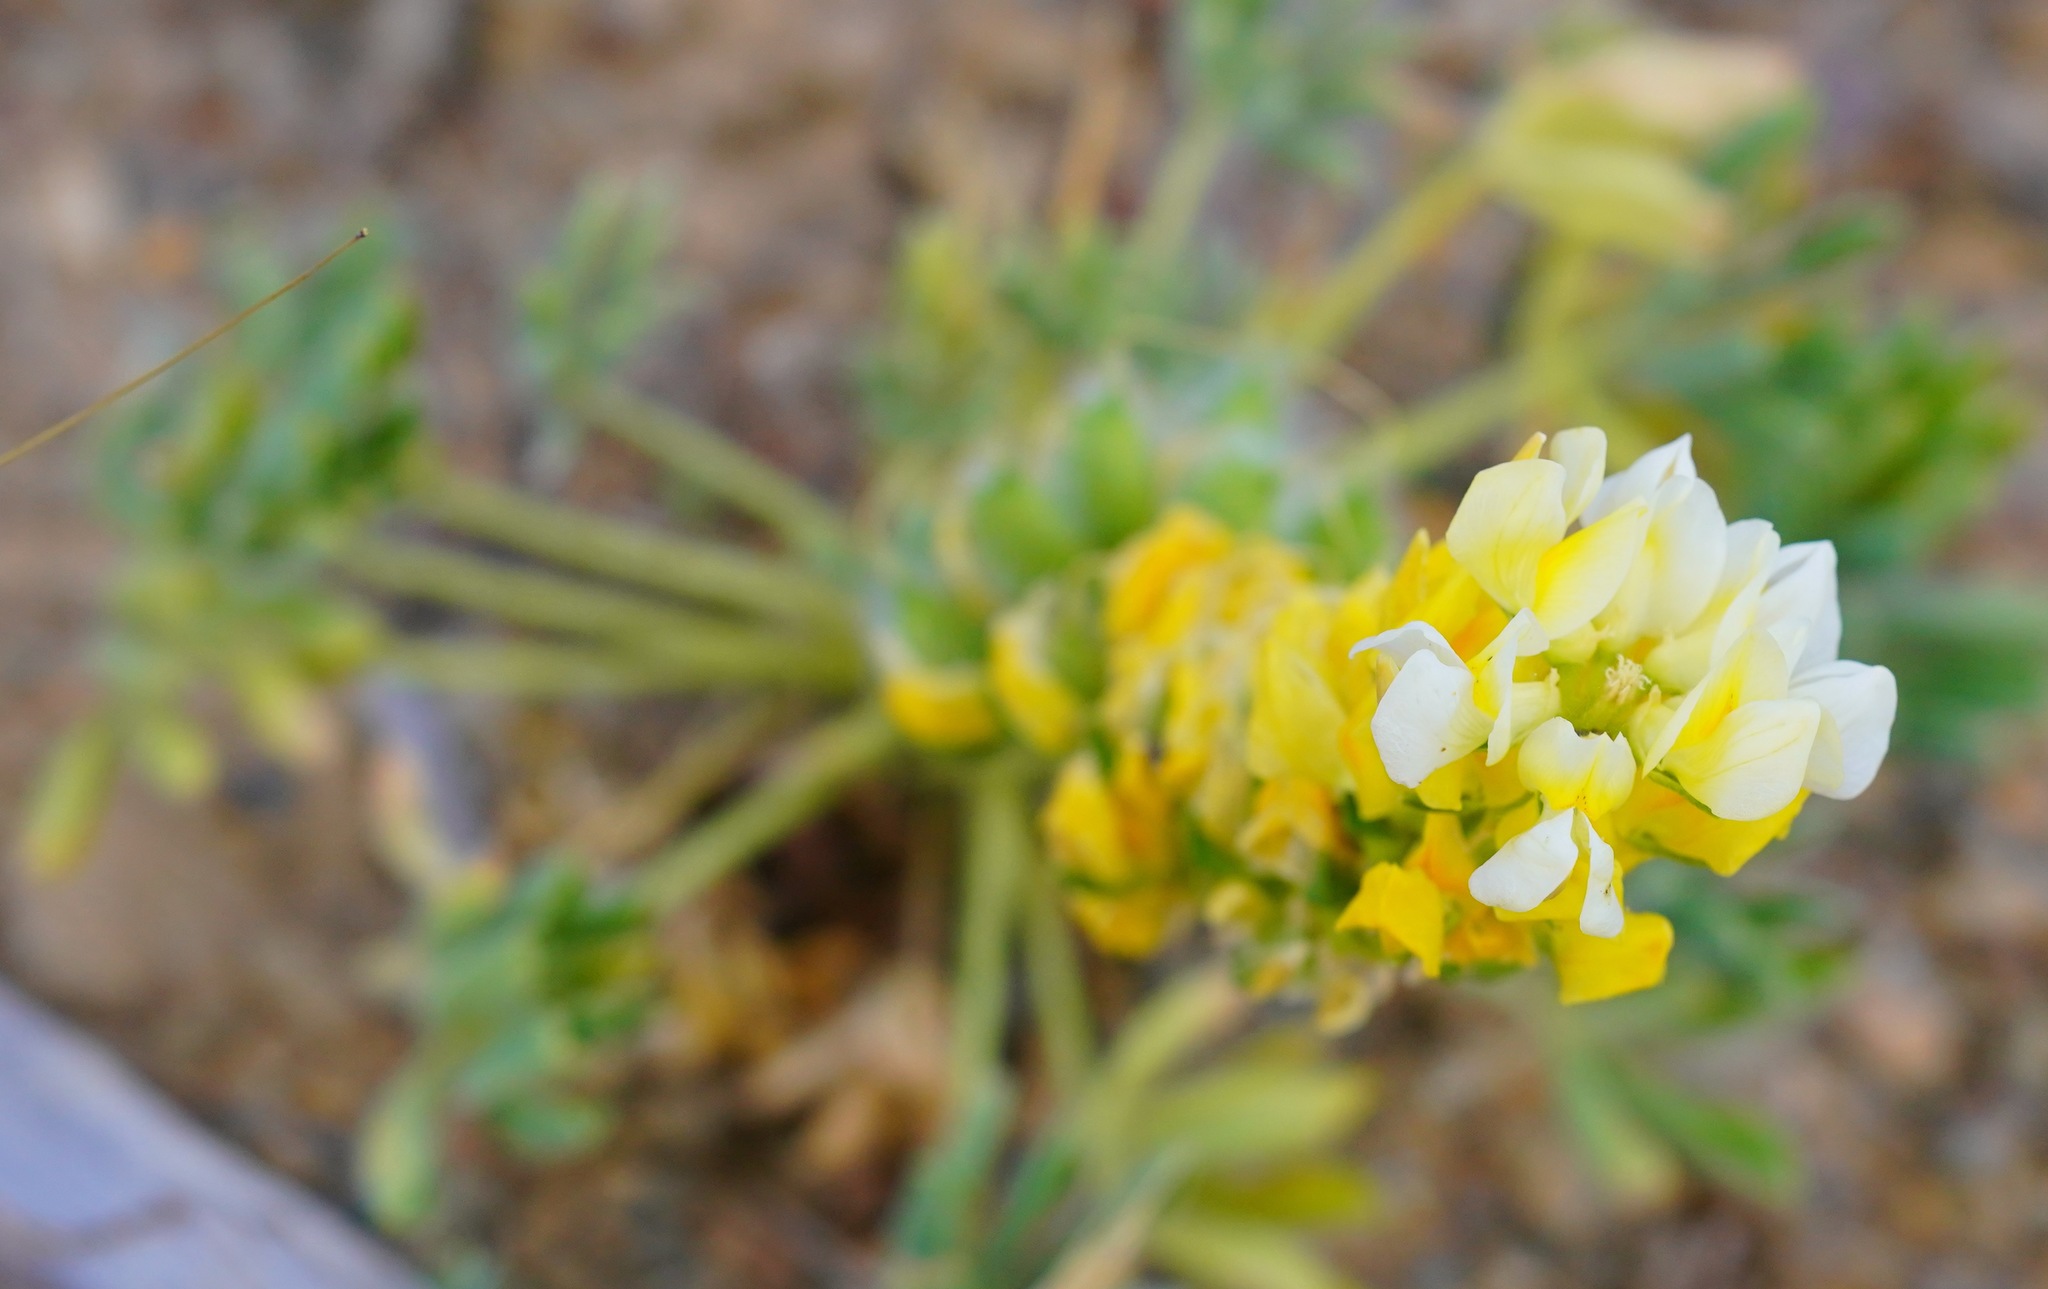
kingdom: Plantae
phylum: Tracheophyta
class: Magnoliopsida
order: Fabales
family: Fabaceae
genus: Lupinus
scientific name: Lupinus microcarpus
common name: Chick lupine
